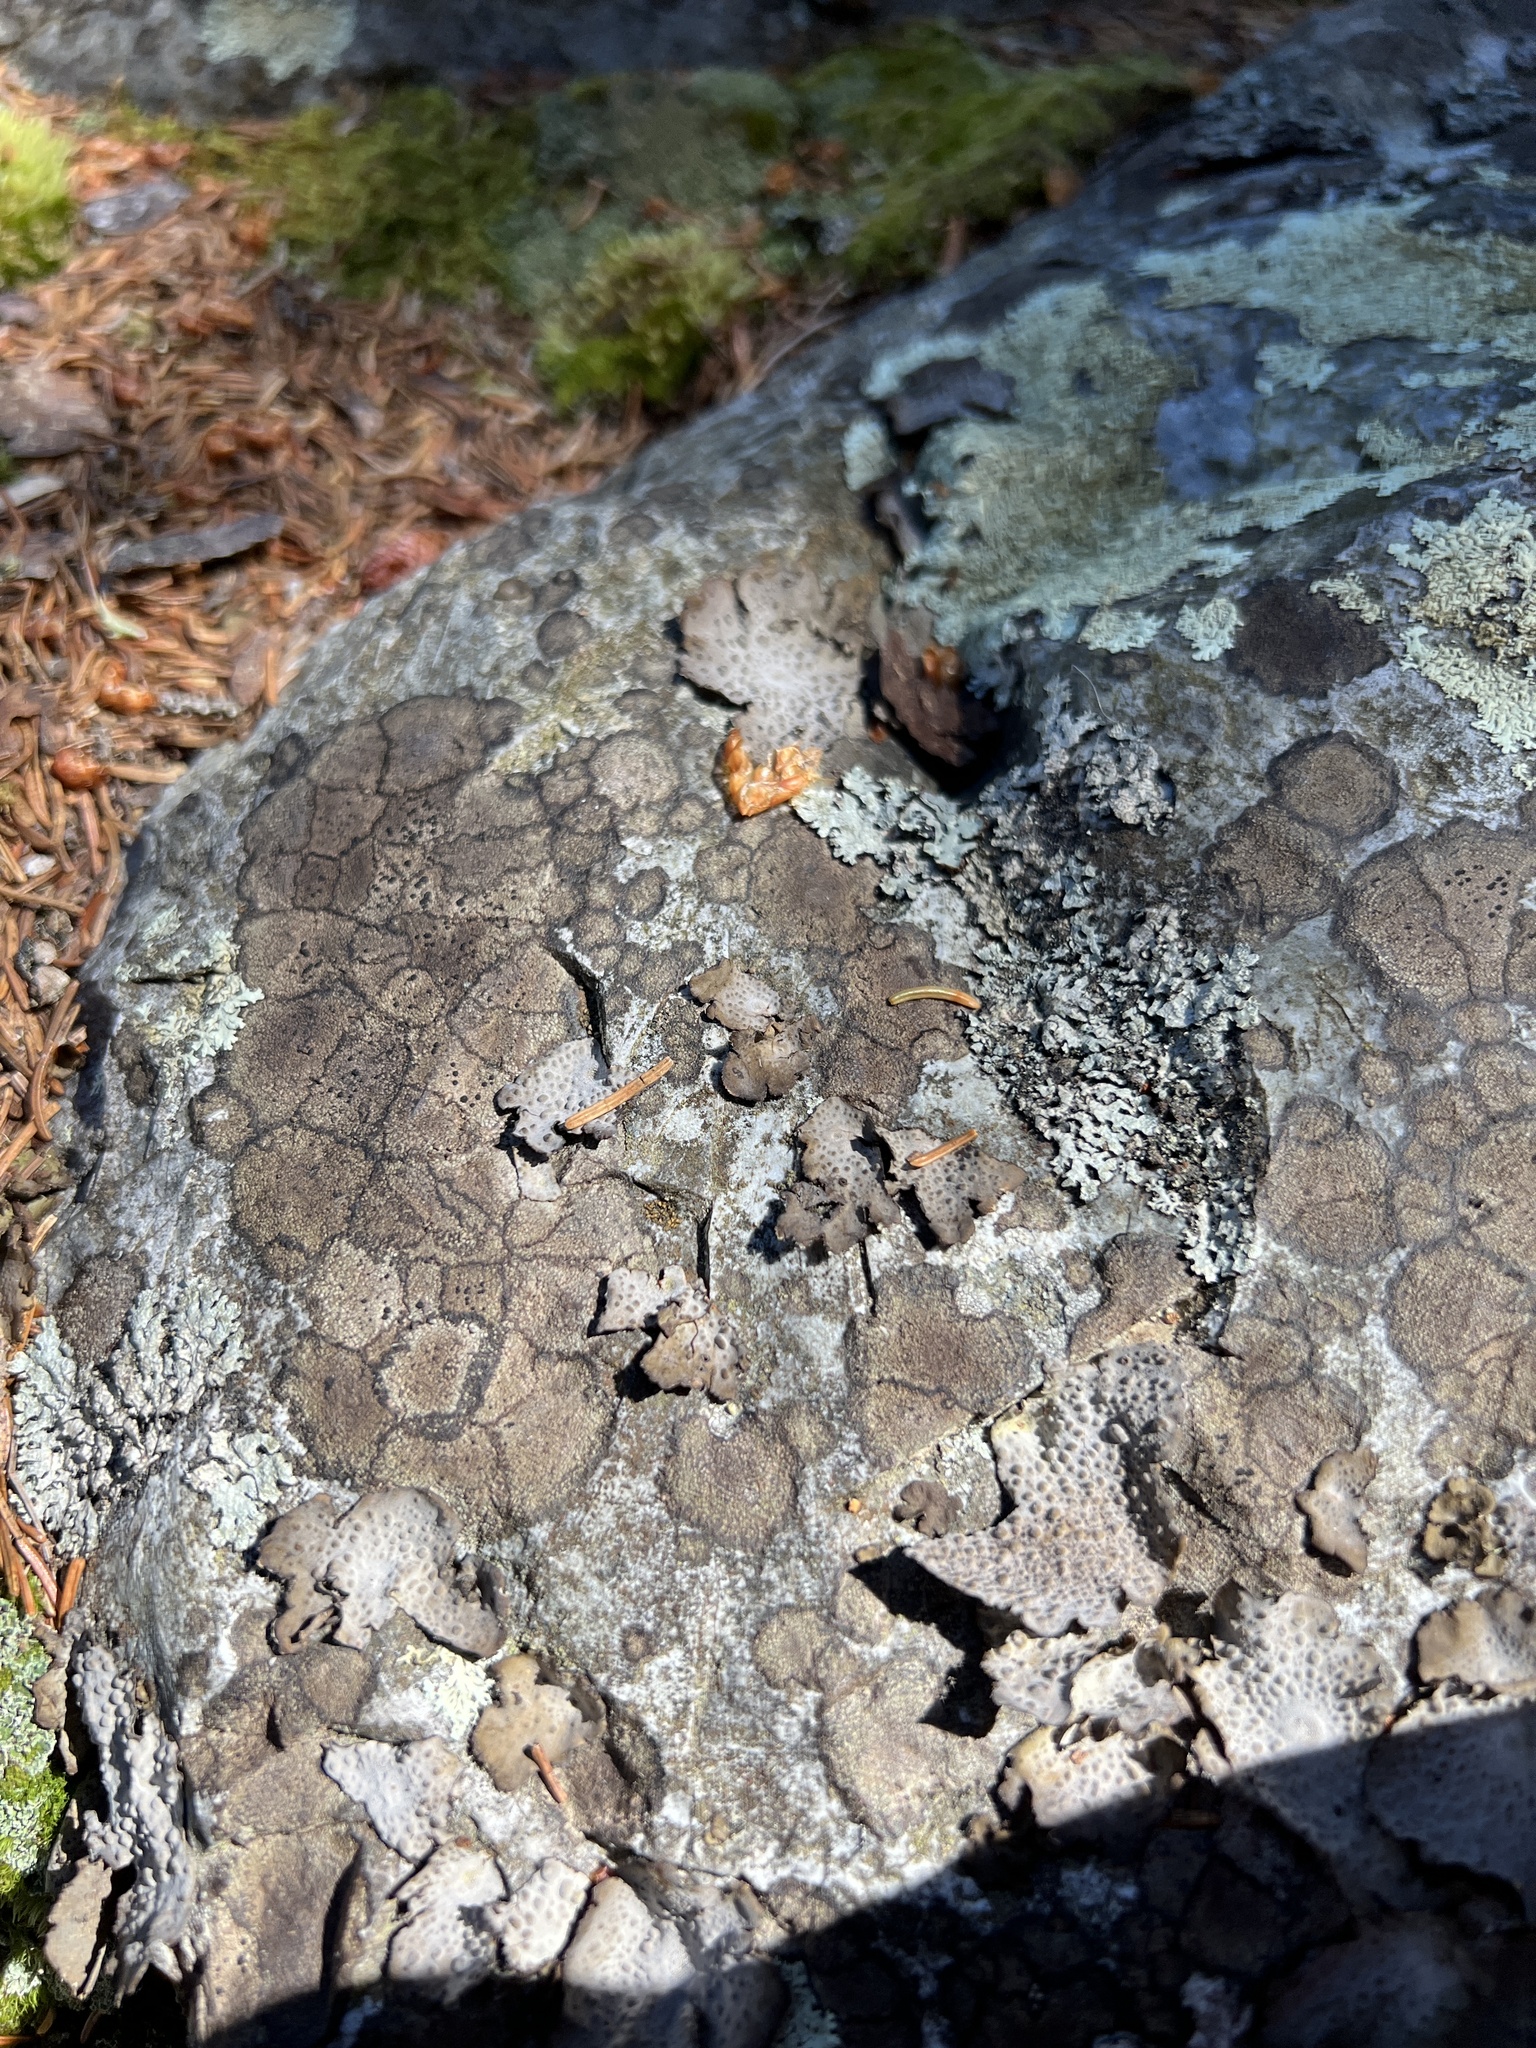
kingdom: Fungi
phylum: Ascomycota
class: Lecanoromycetes
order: Umbilicariales
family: Umbilicariaceae
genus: Lasallia
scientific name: Lasallia papulosa
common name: Common toadskin lichen
